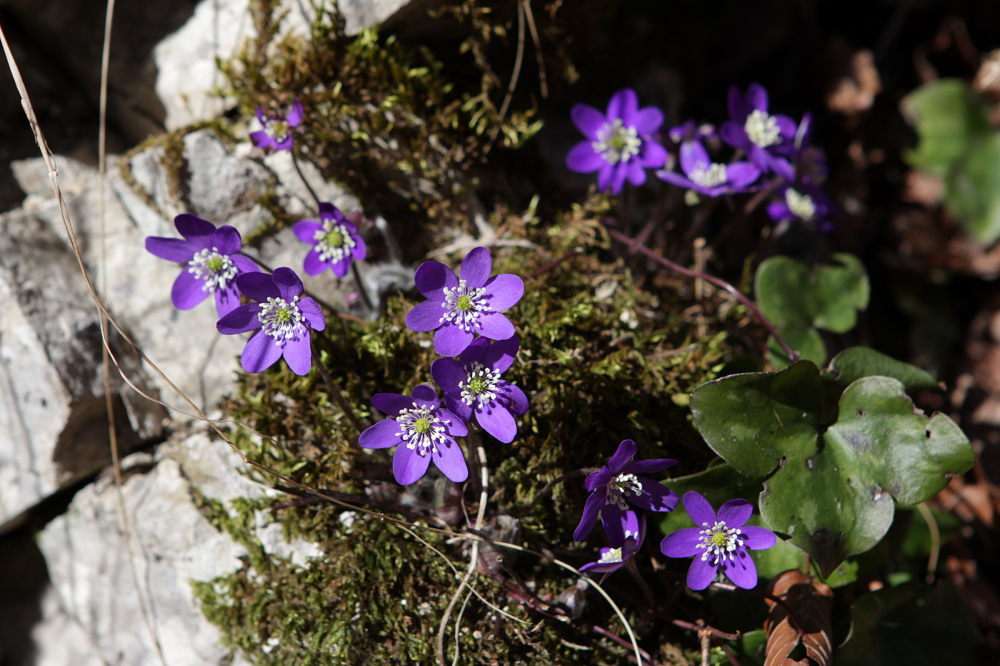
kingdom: Plantae
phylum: Tracheophyta
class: Magnoliopsida
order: Ranunculales
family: Ranunculaceae
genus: Hepatica
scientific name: Hepatica nobilis
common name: Liverleaf
